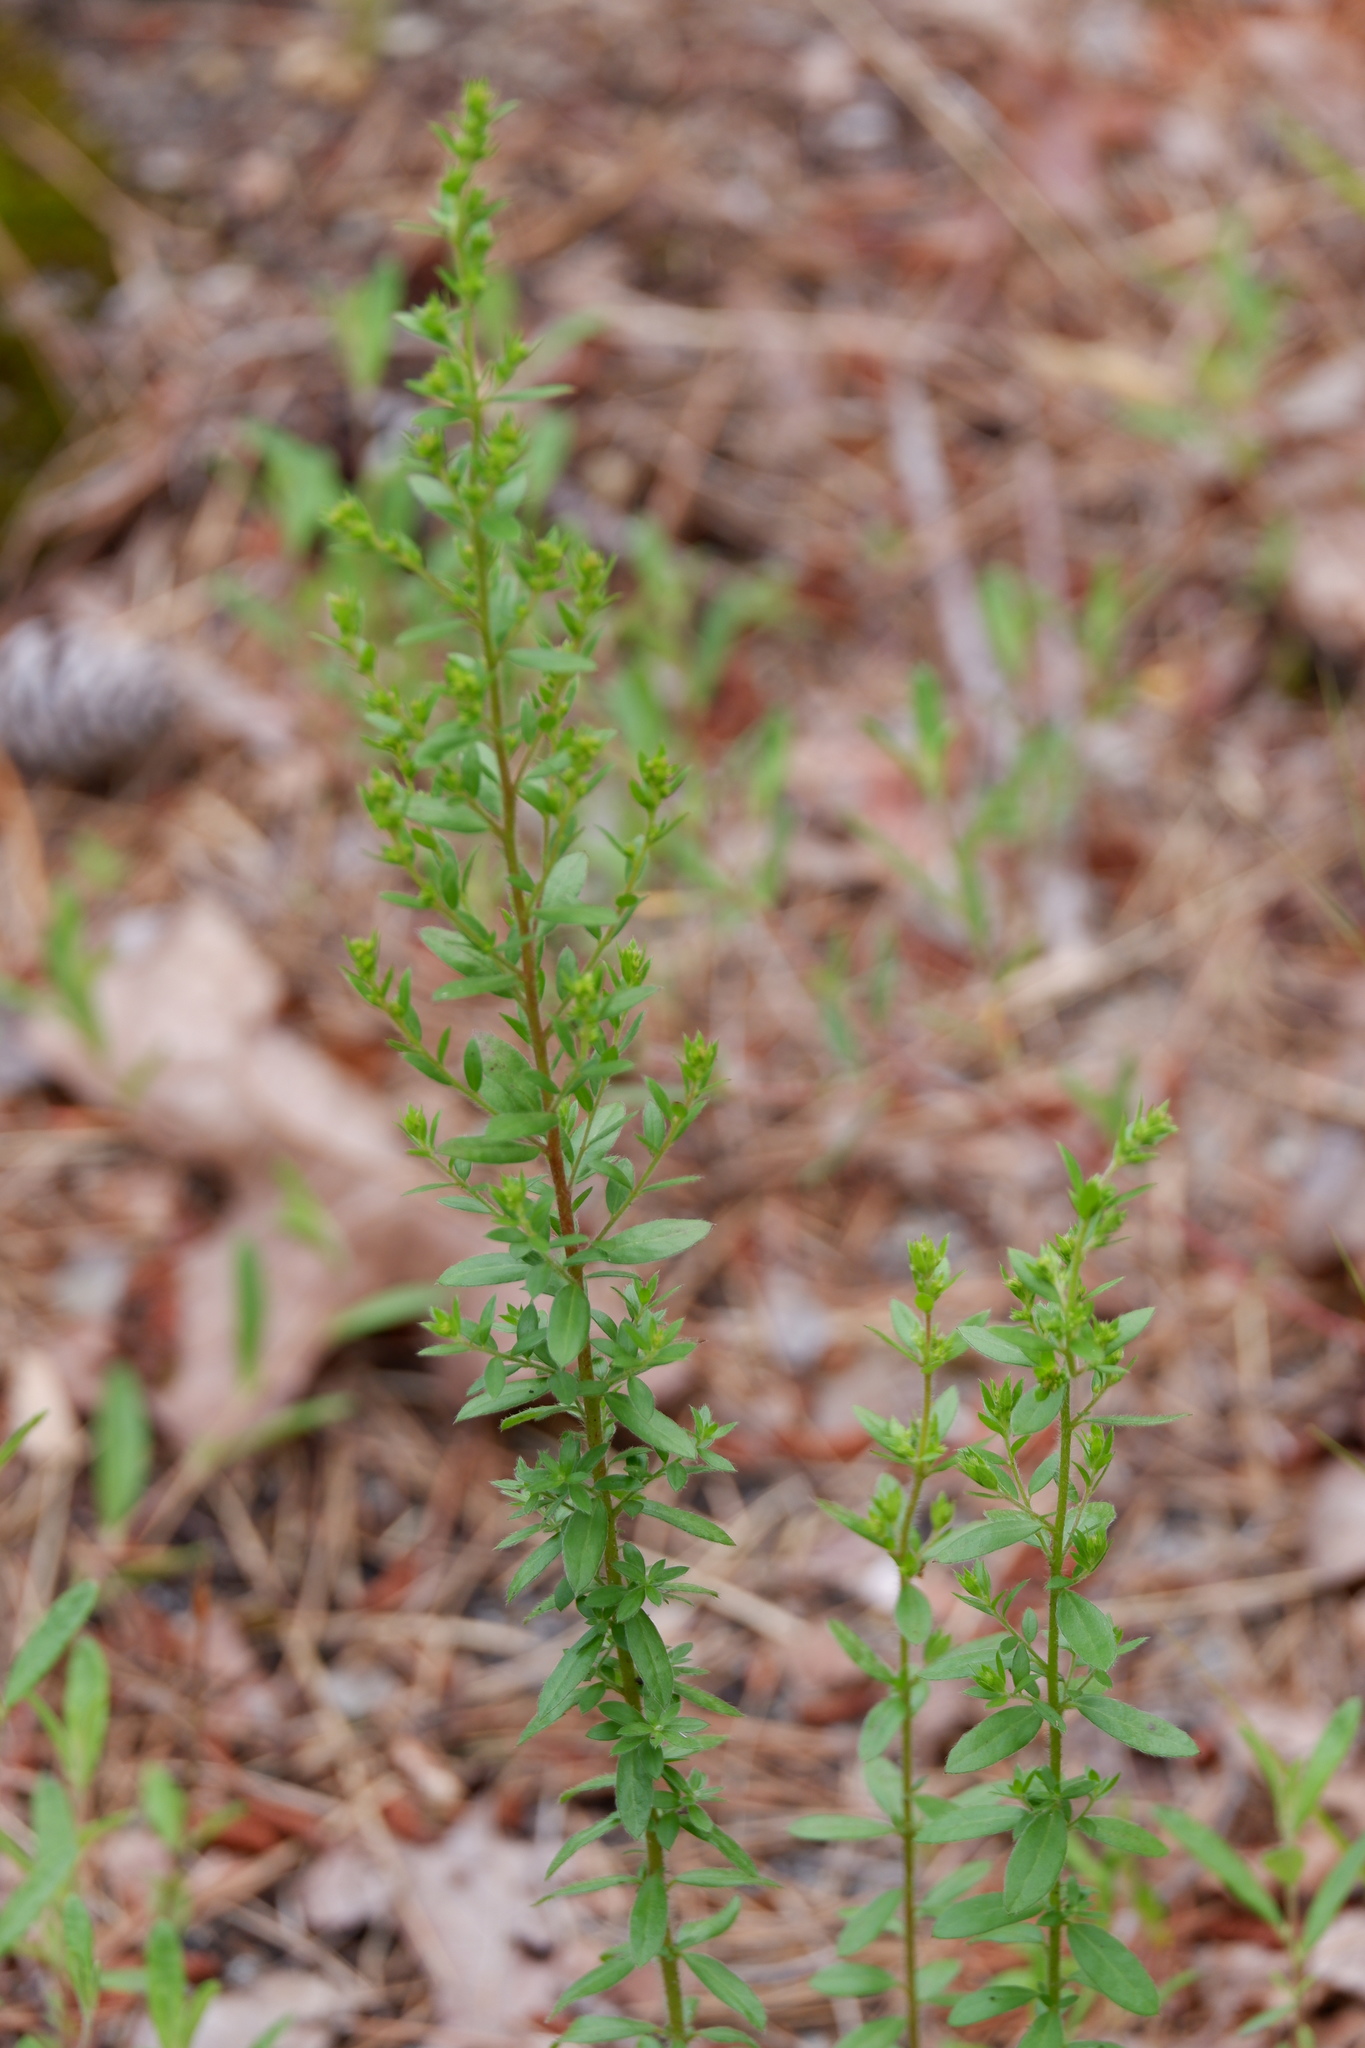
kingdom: Plantae
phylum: Tracheophyta
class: Magnoliopsida
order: Malvales
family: Cistaceae
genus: Lechea
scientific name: Lechea mucronata
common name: Hairy pinweed
